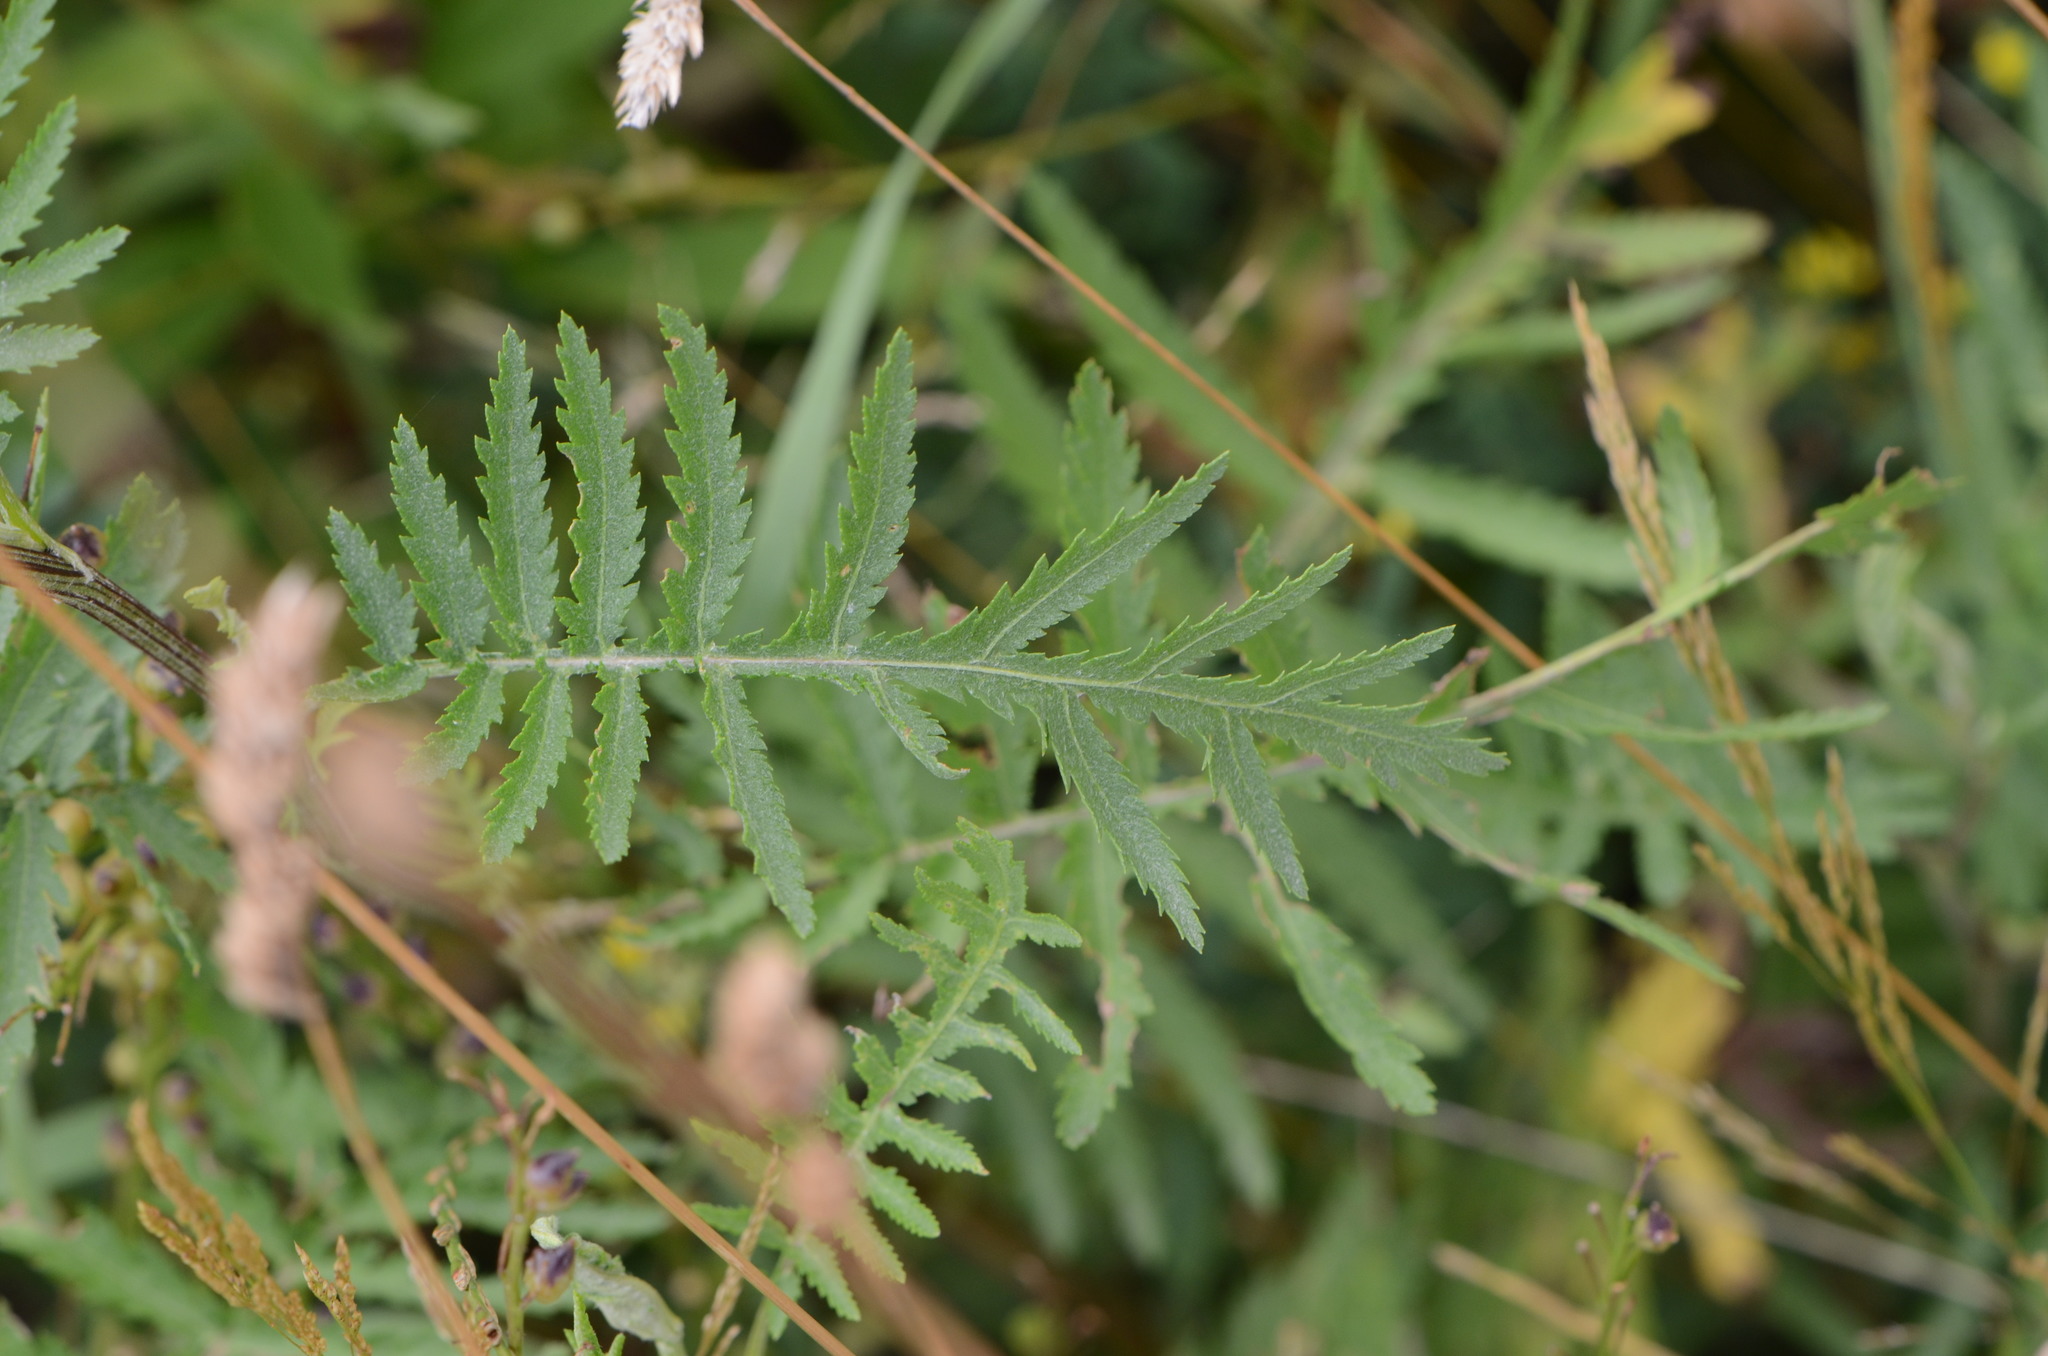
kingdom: Plantae
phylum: Tracheophyta
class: Magnoliopsida
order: Asterales
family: Asteraceae
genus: Tanacetum
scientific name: Tanacetum vulgare
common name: Common tansy
